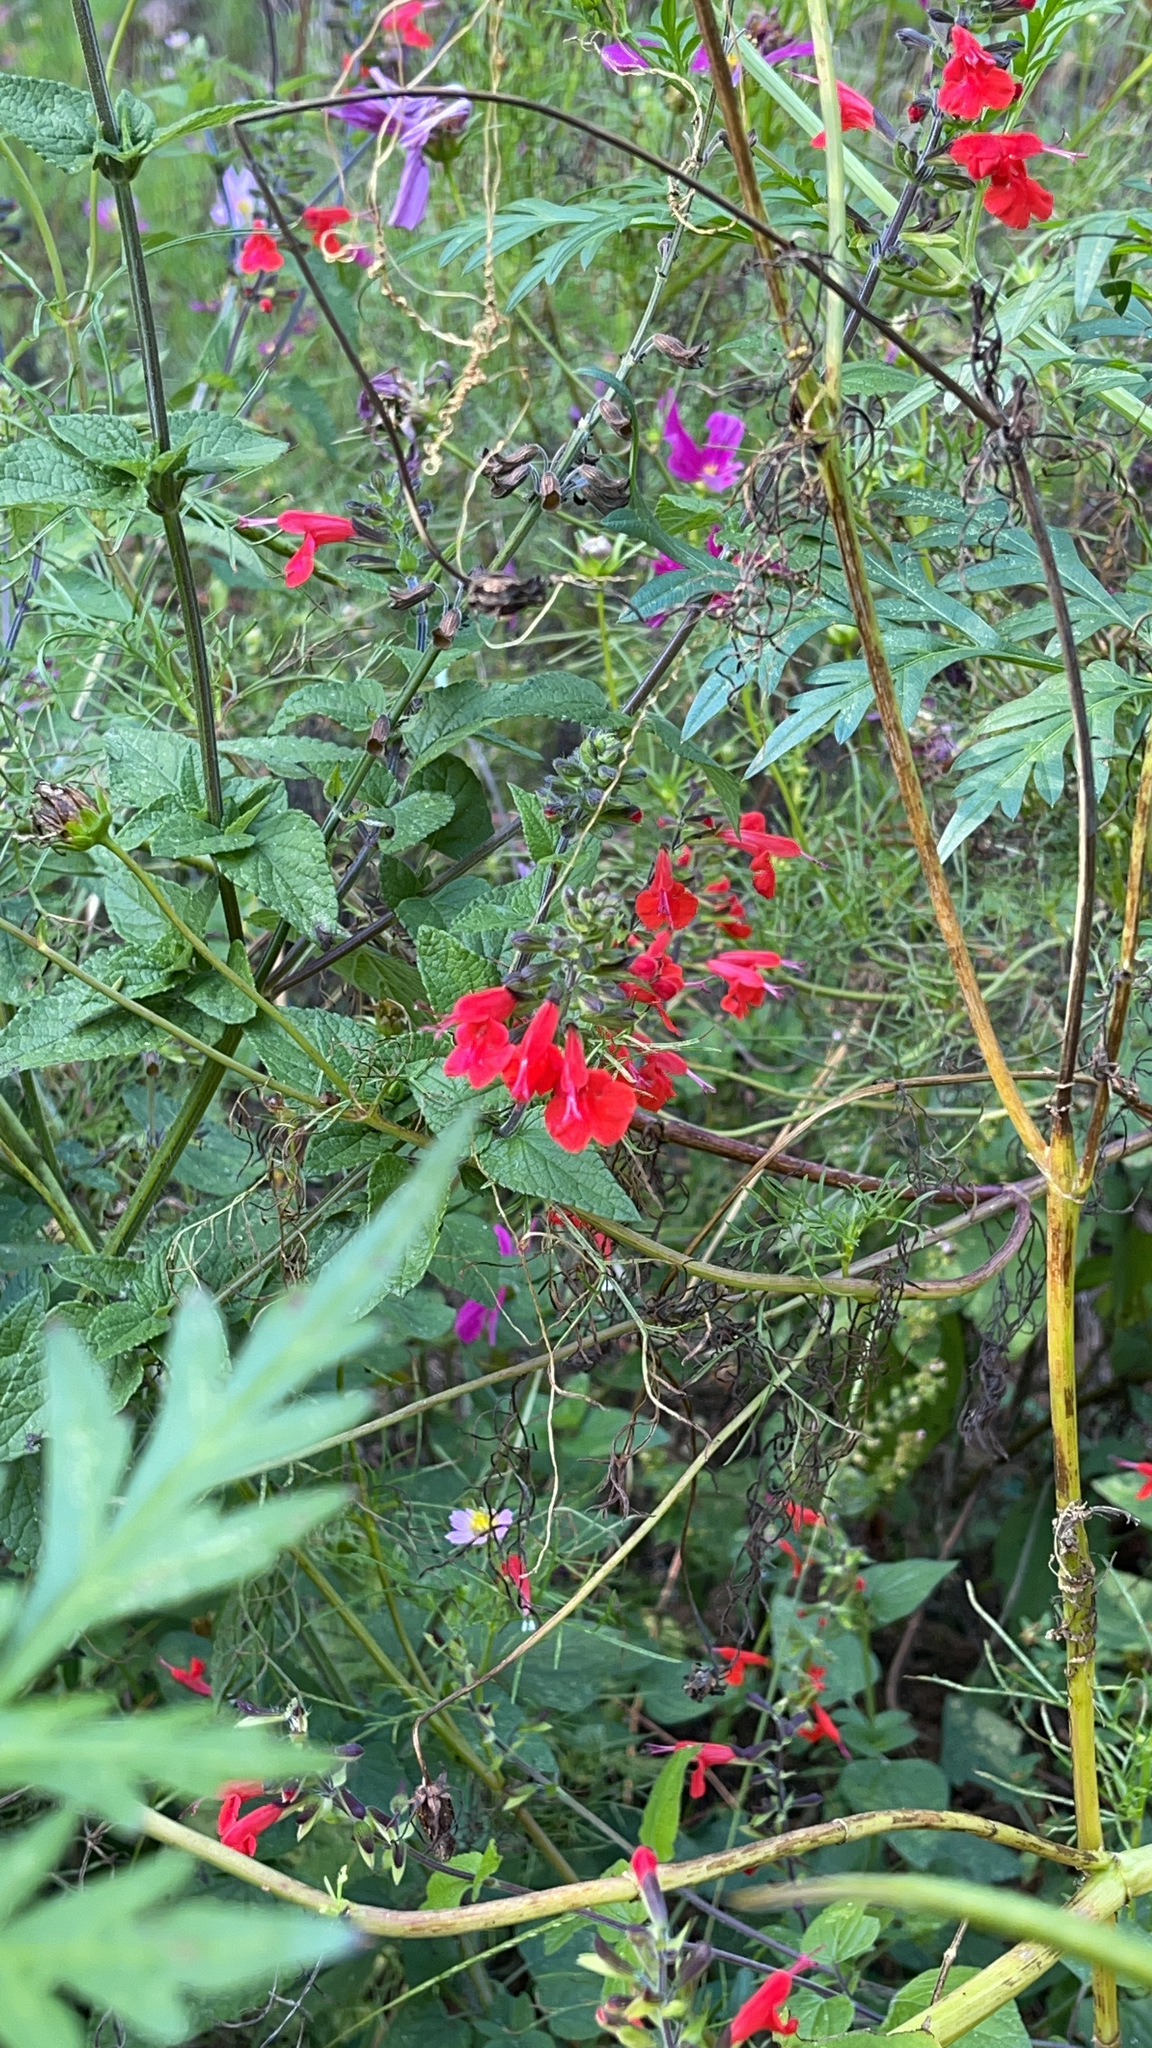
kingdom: Plantae
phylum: Tracheophyta
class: Magnoliopsida
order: Lamiales
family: Lamiaceae
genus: Salvia
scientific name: Salvia coccinea
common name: Blood sage
